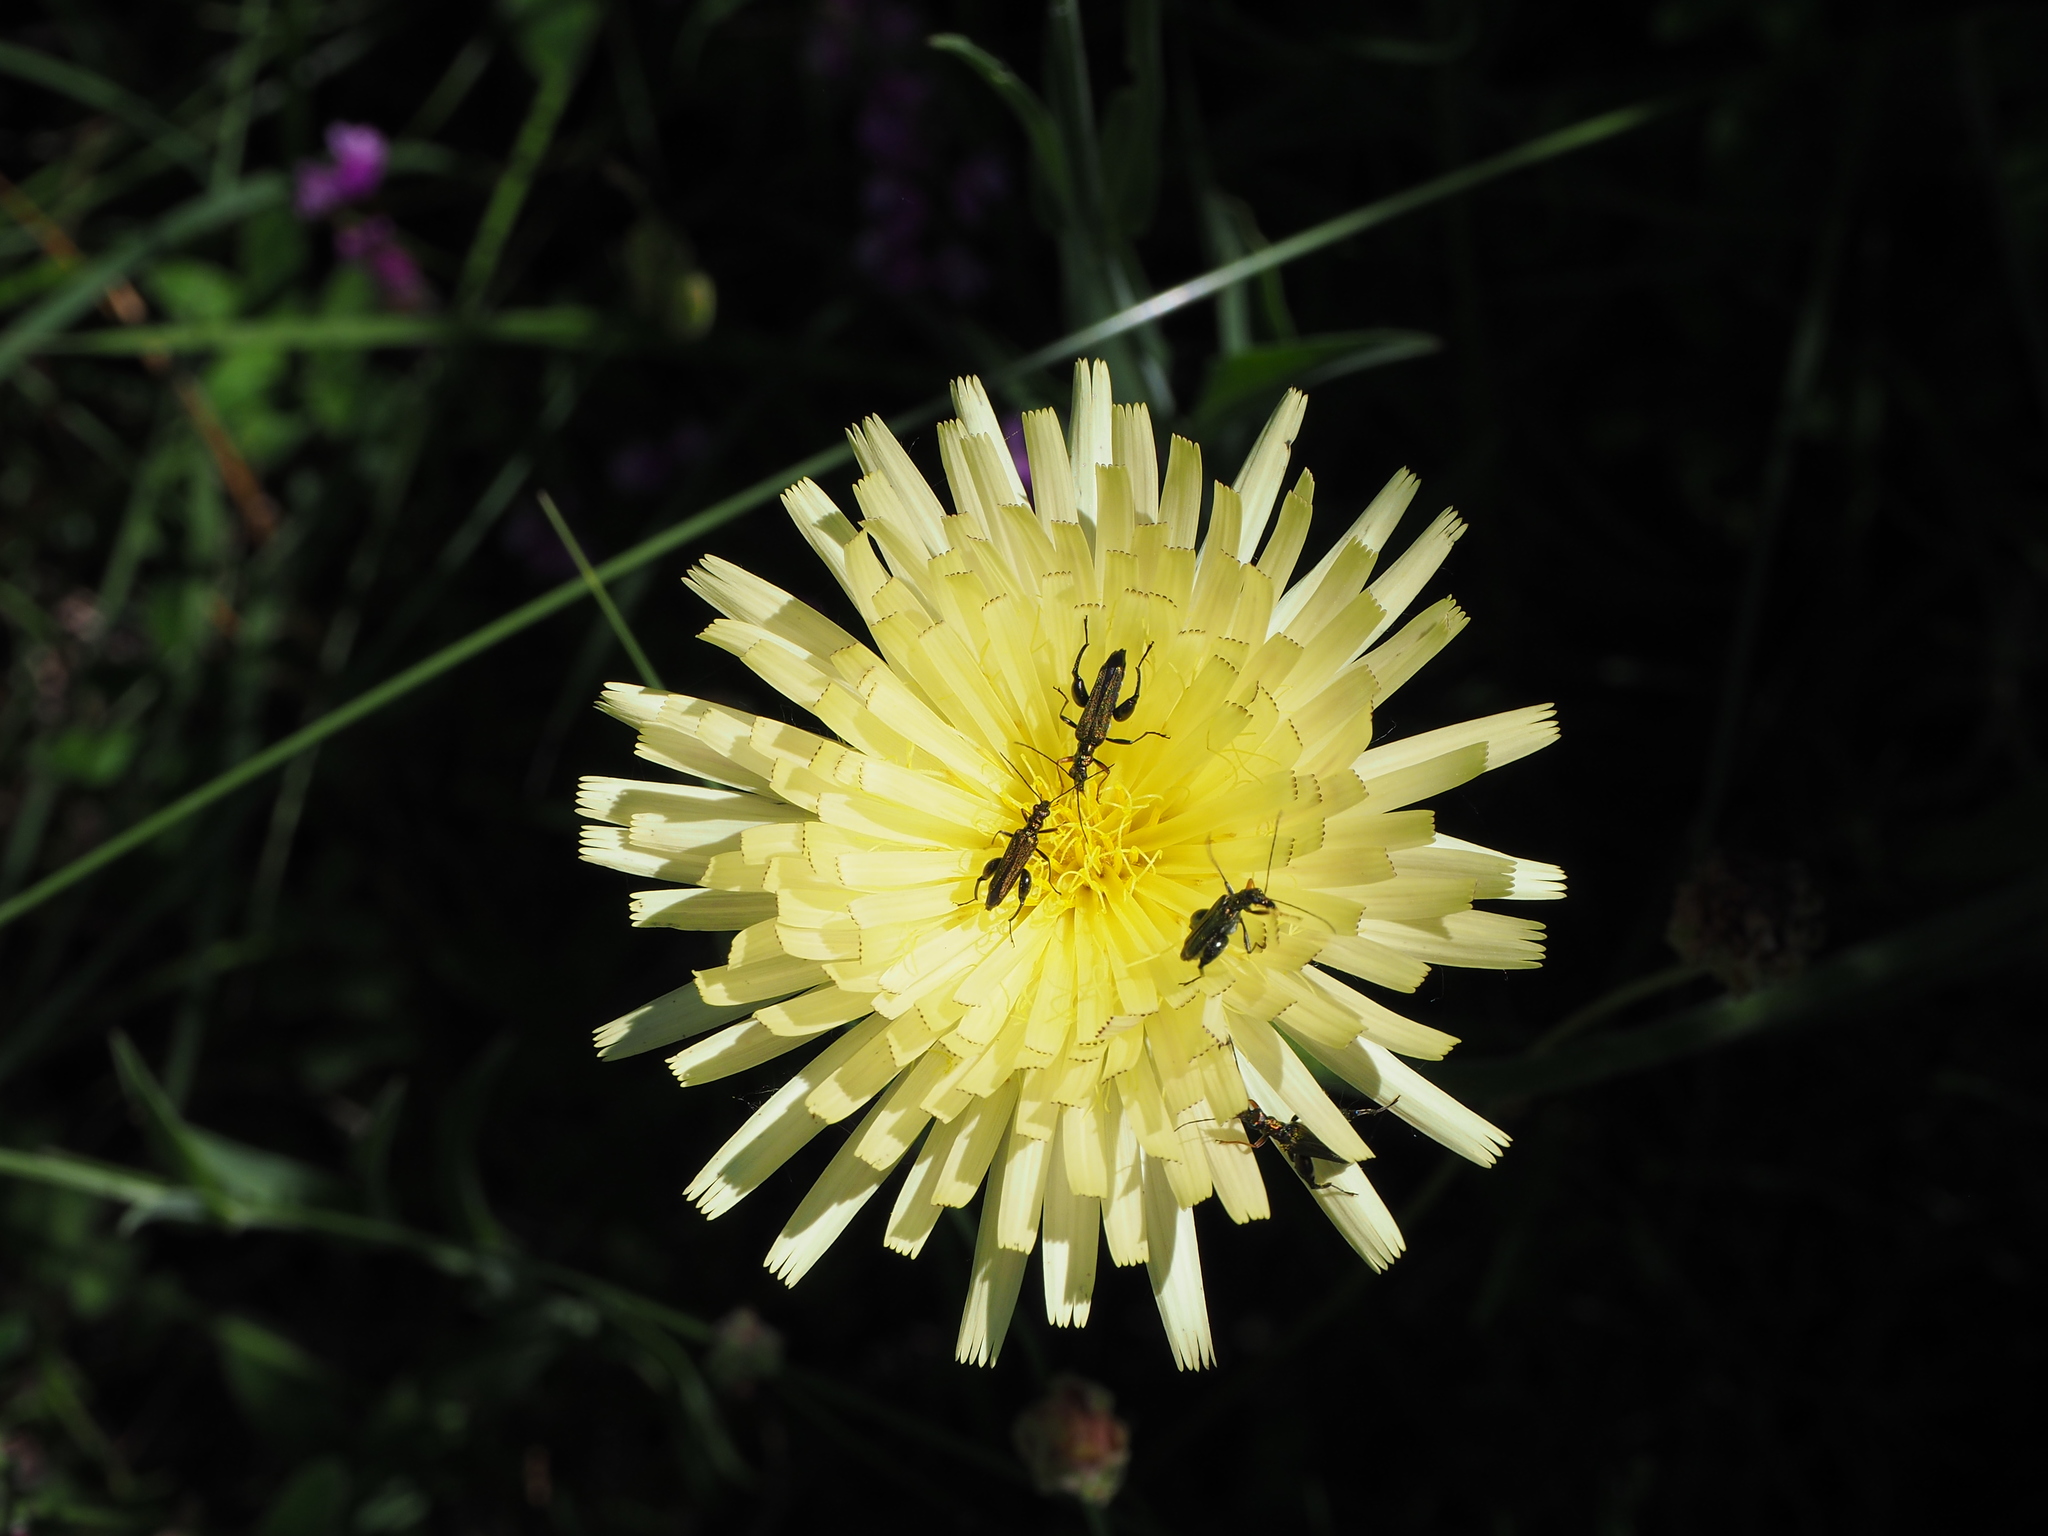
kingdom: Animalia
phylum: Arthropoda
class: Insecta
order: Coleoptera
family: Oedemeridae
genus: Oedemera
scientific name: Oedemera flavipes
